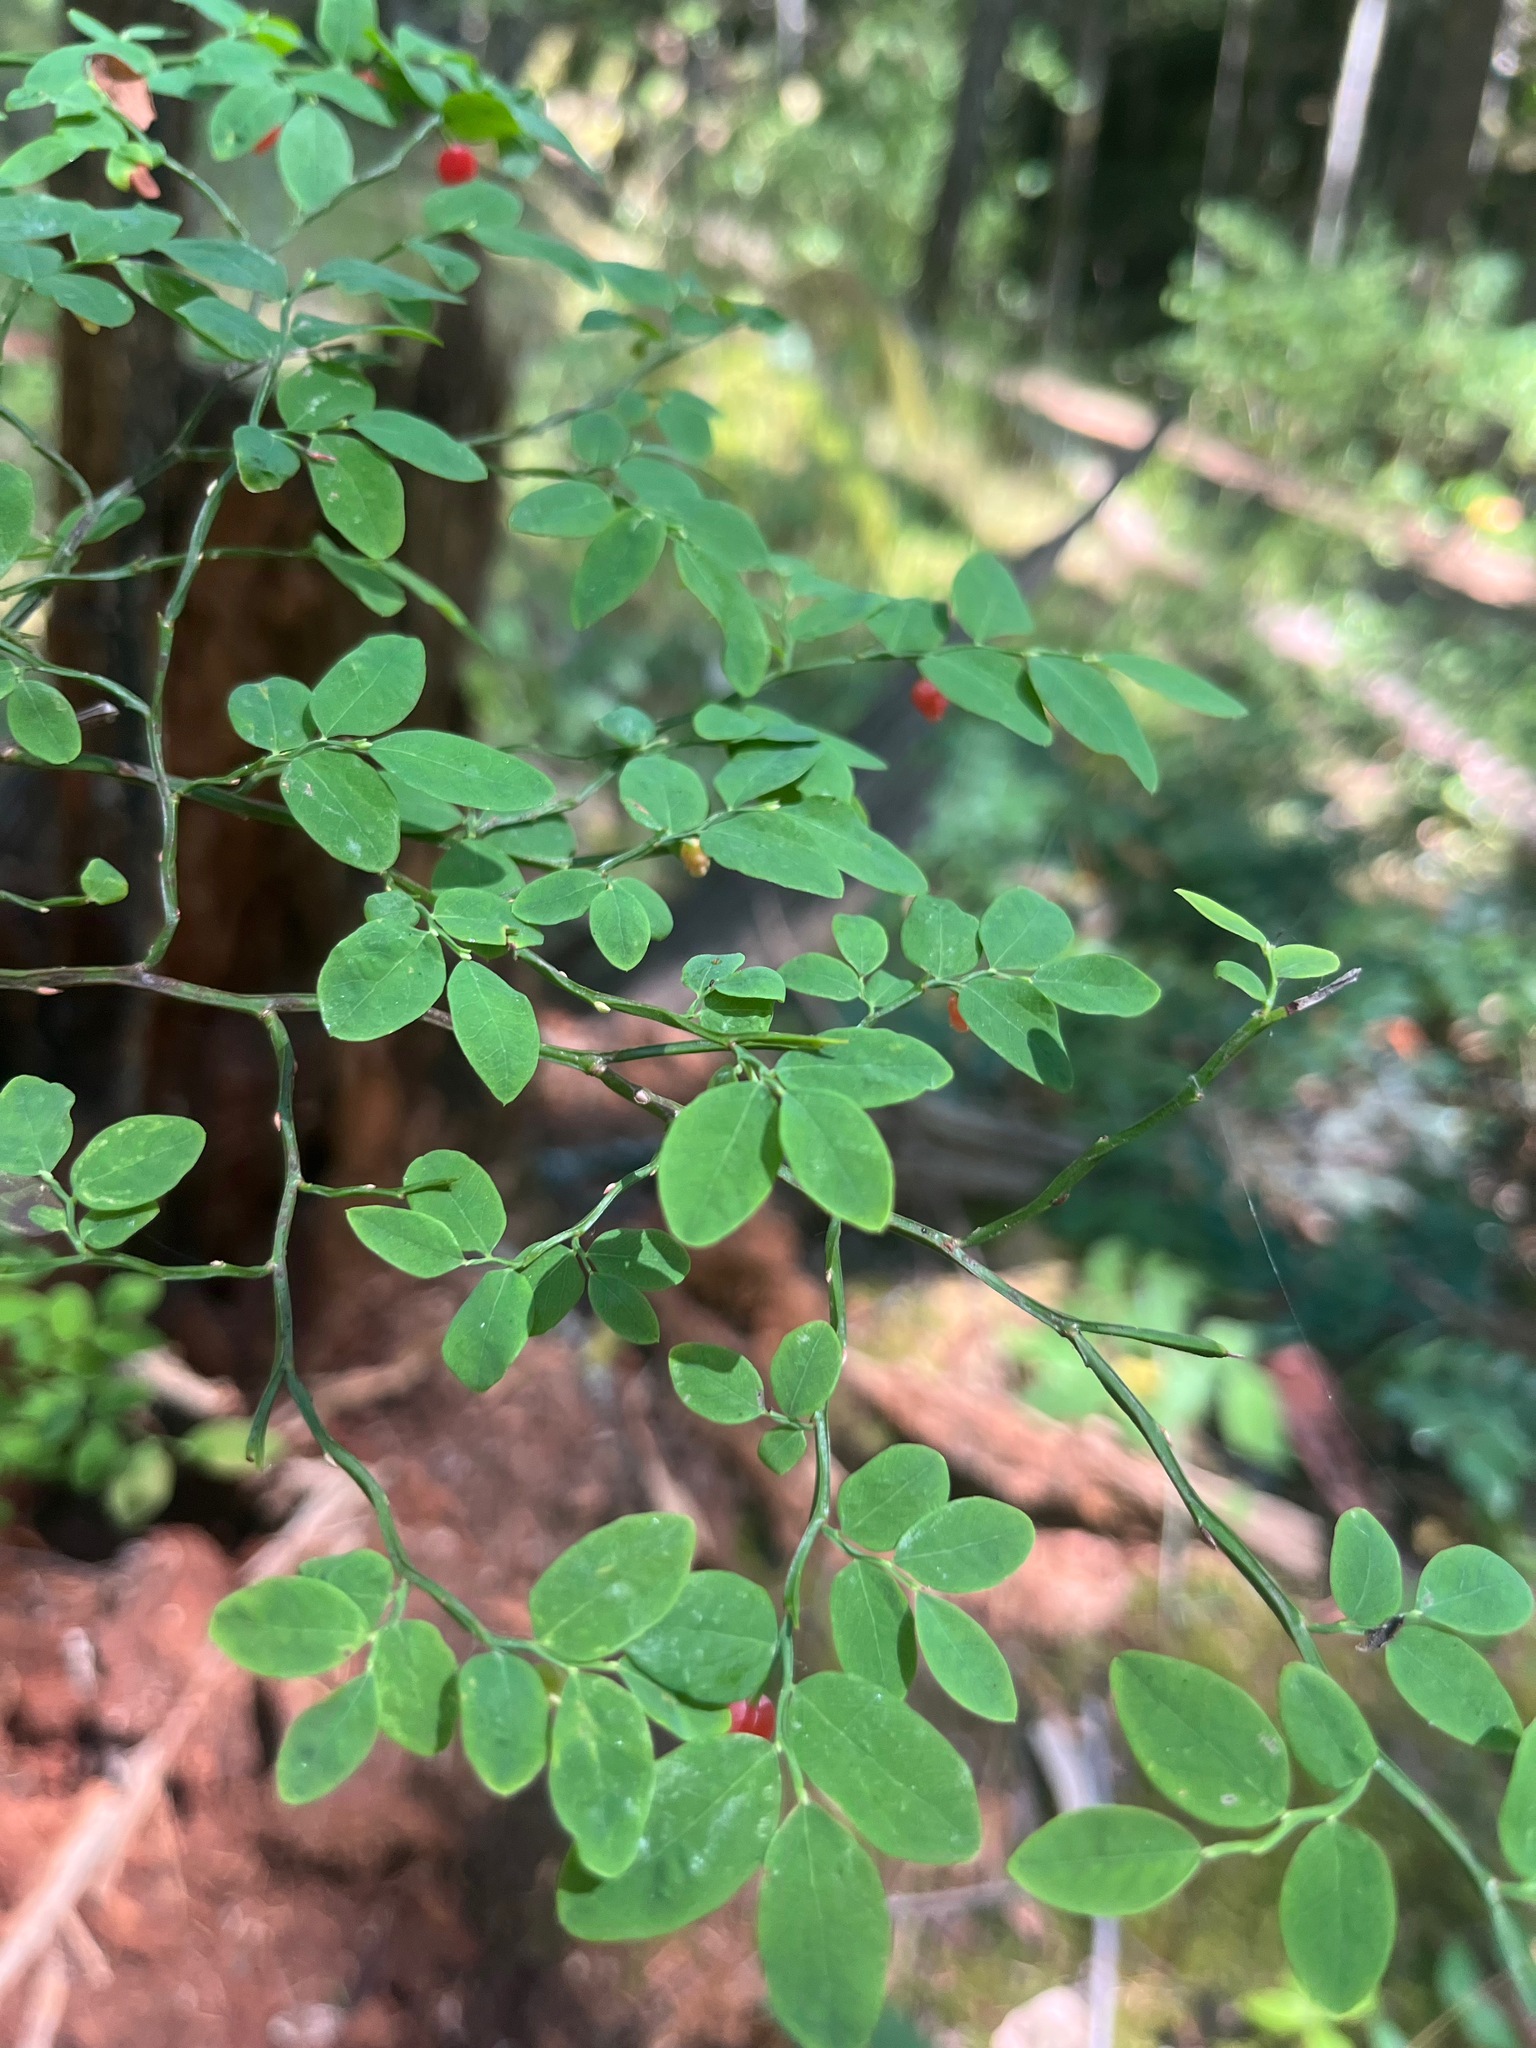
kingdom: Plantae
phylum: Tracheophyta
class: Magnoliopsida
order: Ericales
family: Ericaceae
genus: Vaccinium
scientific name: Vaccinium parvifolium
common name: Red-huckleberry
